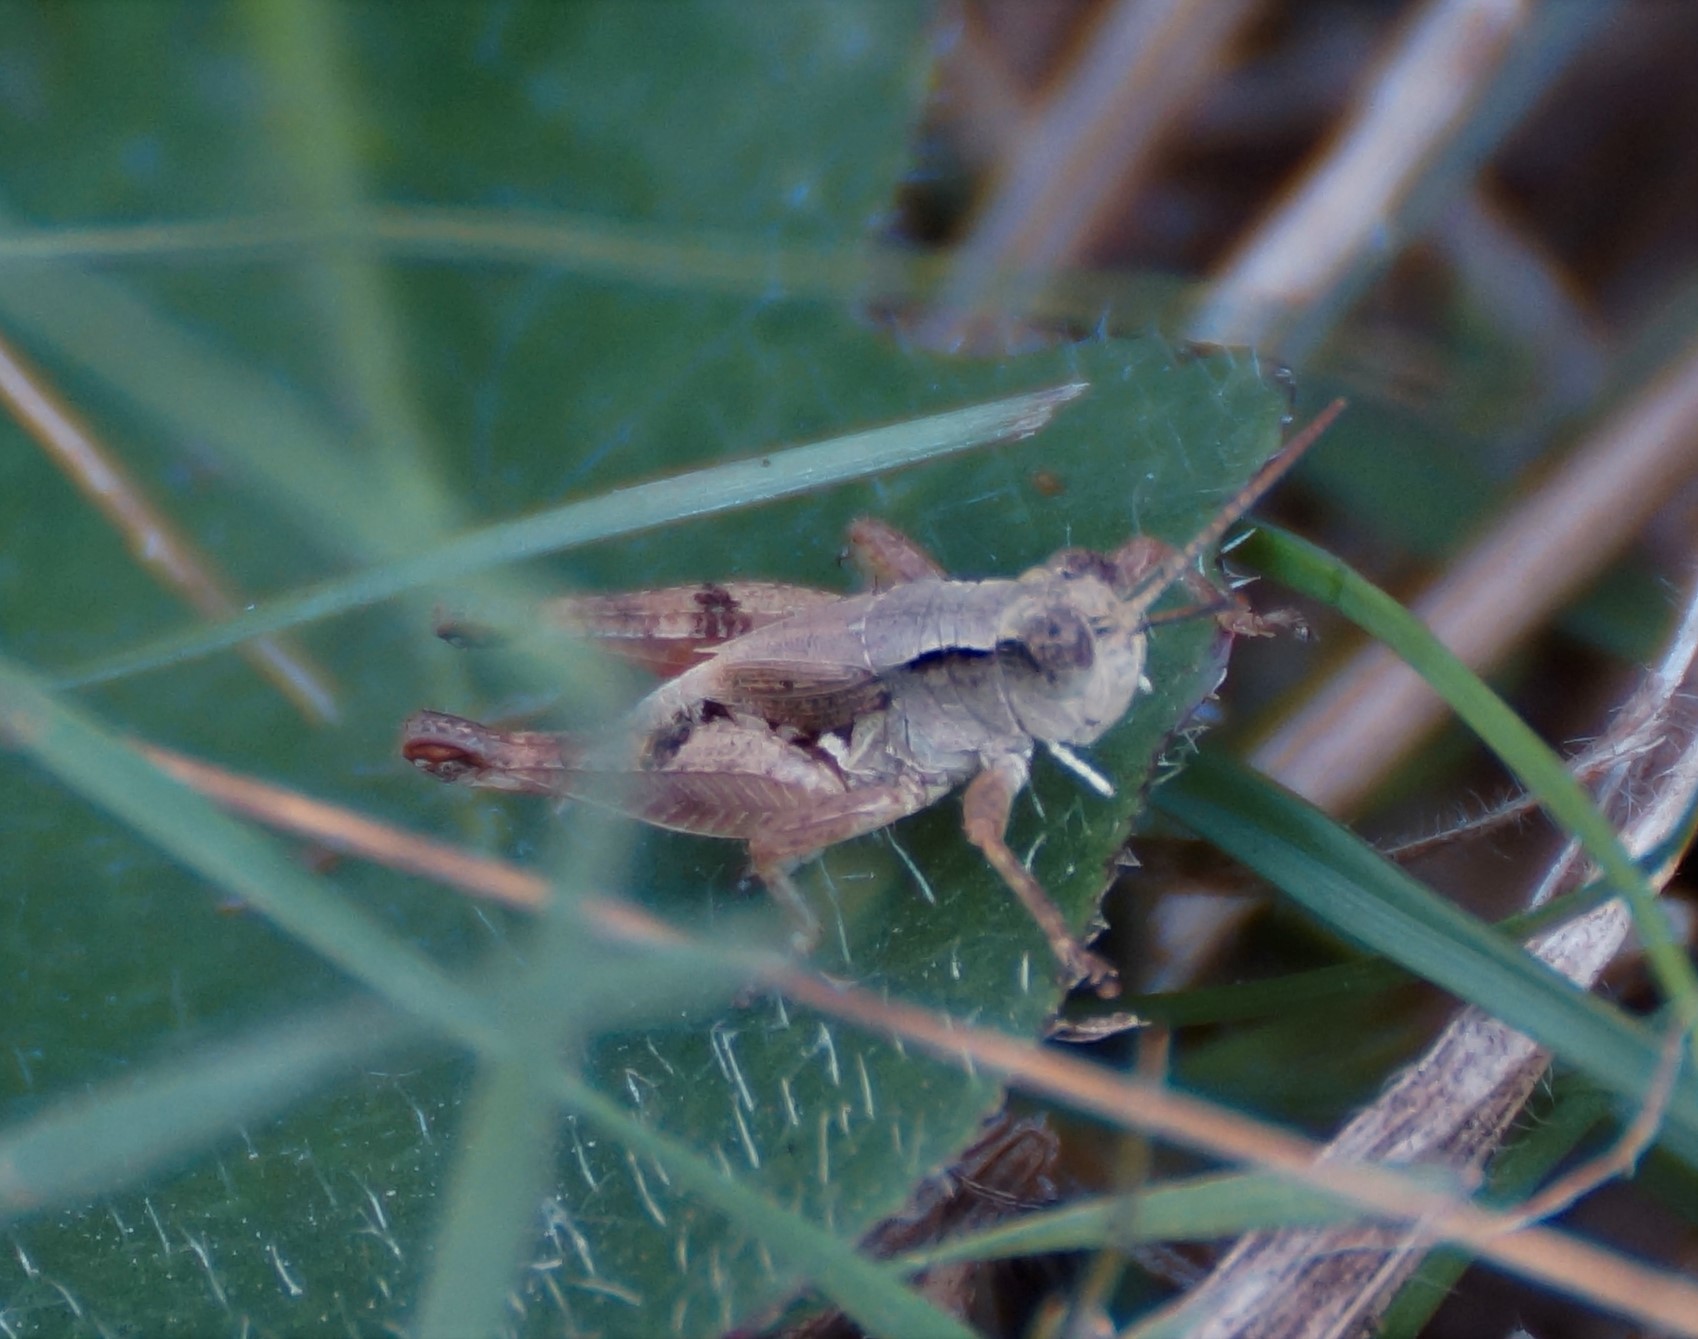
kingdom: Animalia
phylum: Arthropoda
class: Insecta
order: Orthoptera
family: Acrididae
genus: Phaulacridium
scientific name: Phaulacridium vittatum
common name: Wingless grasshopper
